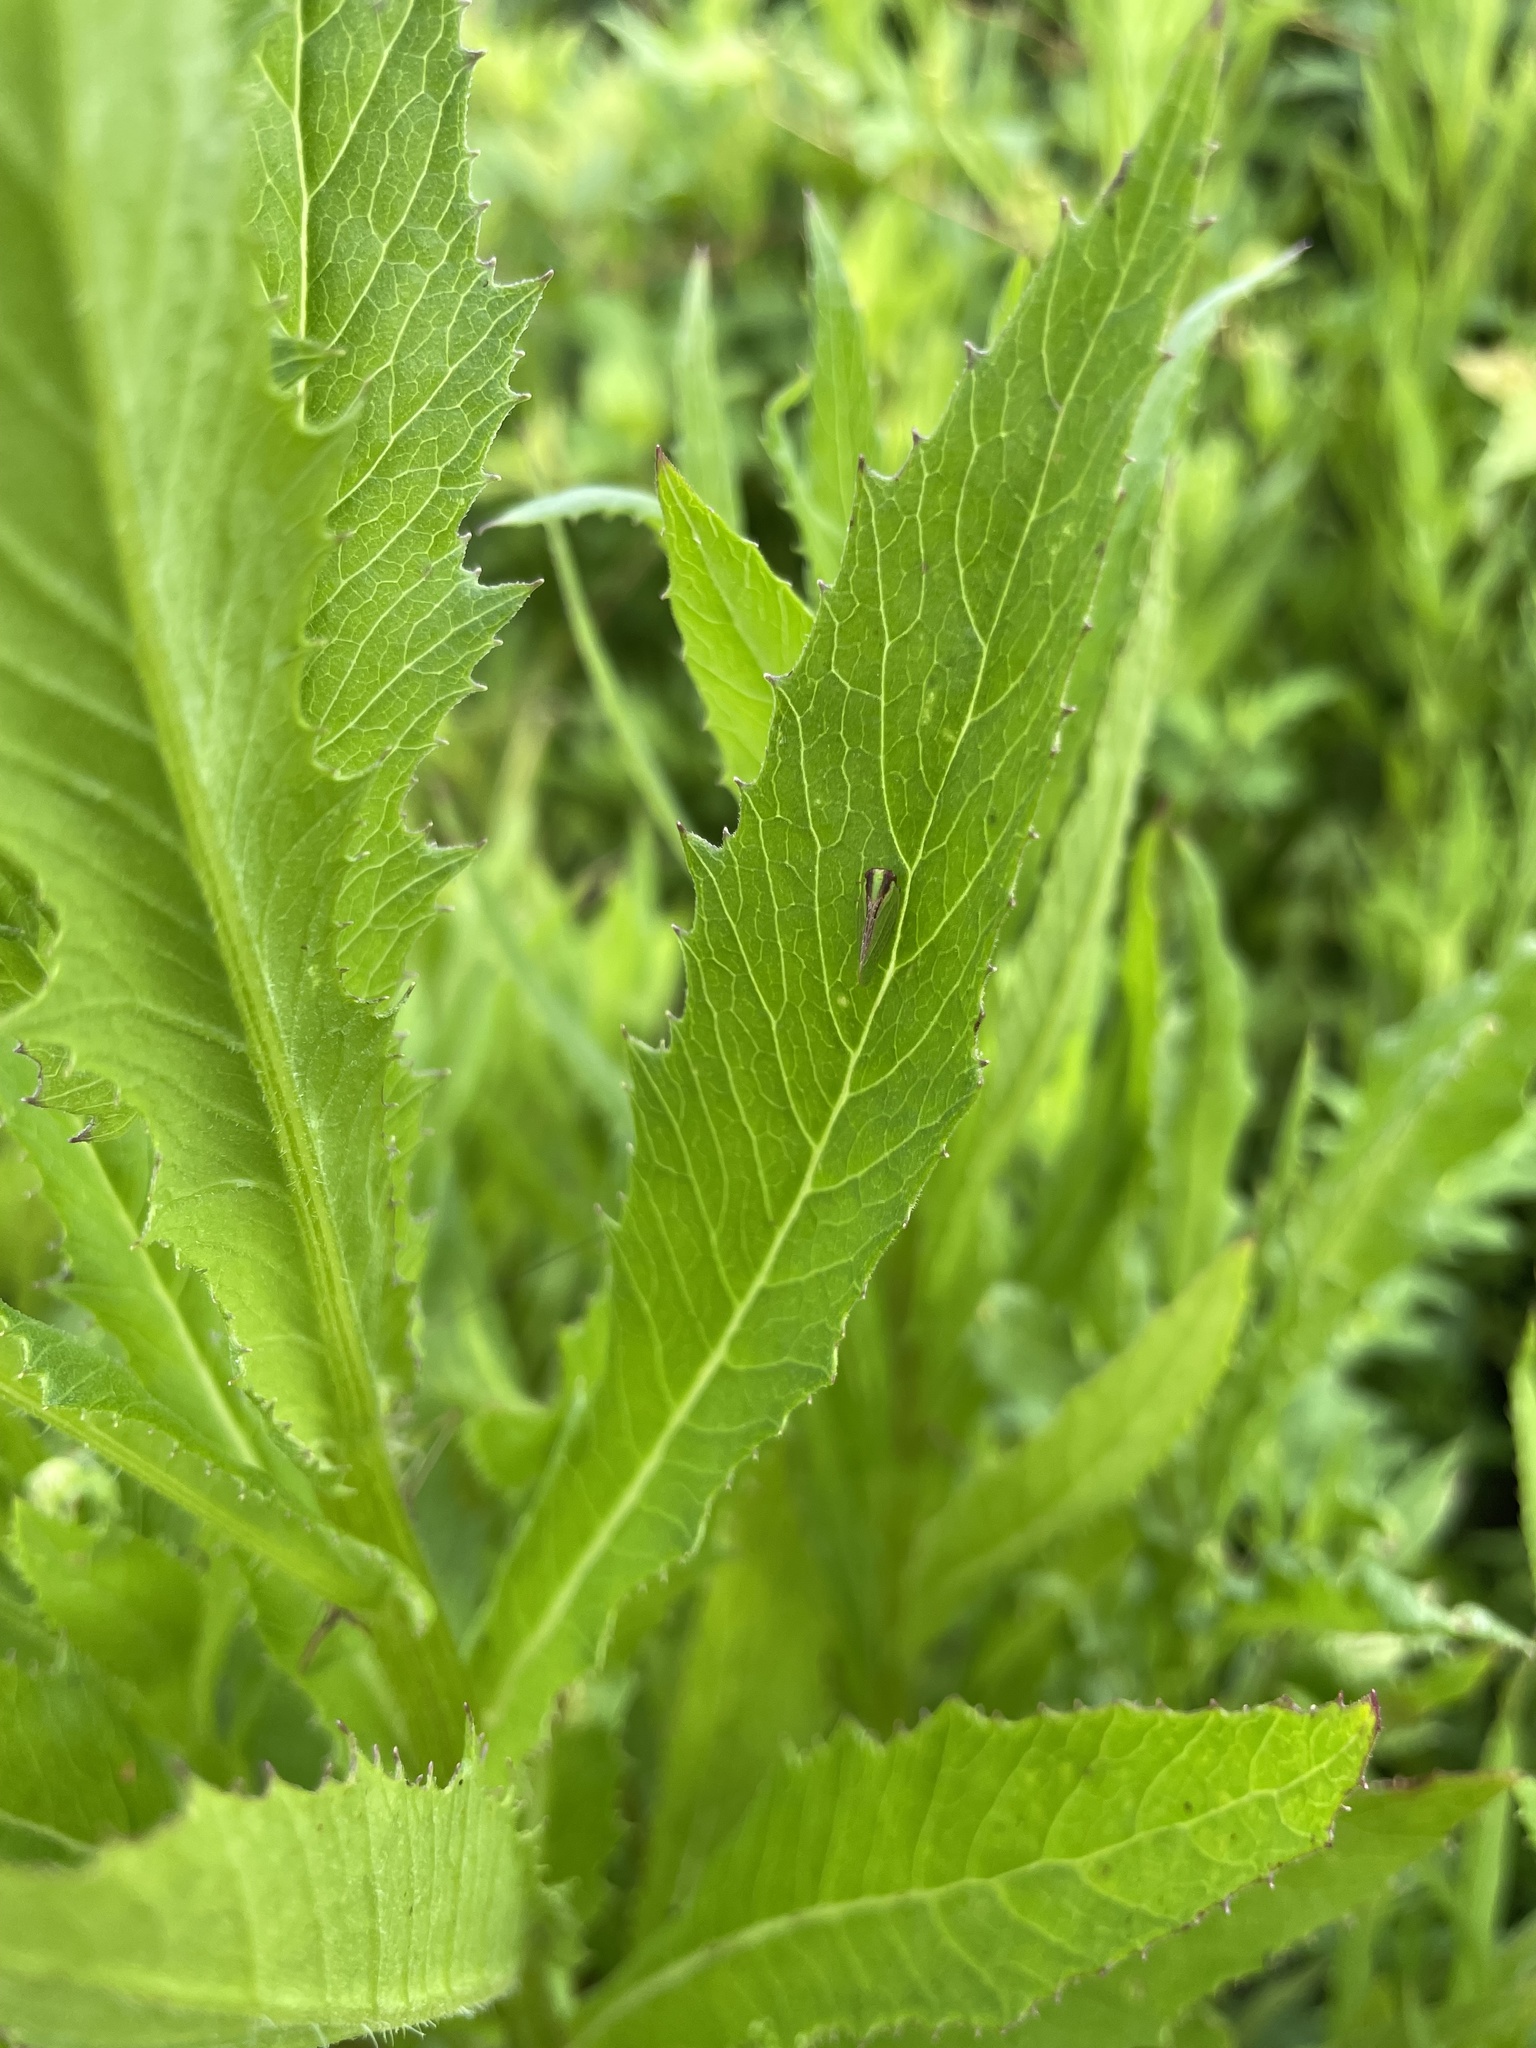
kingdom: Animalia
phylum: Arthropoda
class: Insecta
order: Hemiptera
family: Acanaloniidae
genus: Acanalonia
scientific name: Acanalonia bivittata
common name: Two-striped planthopper
